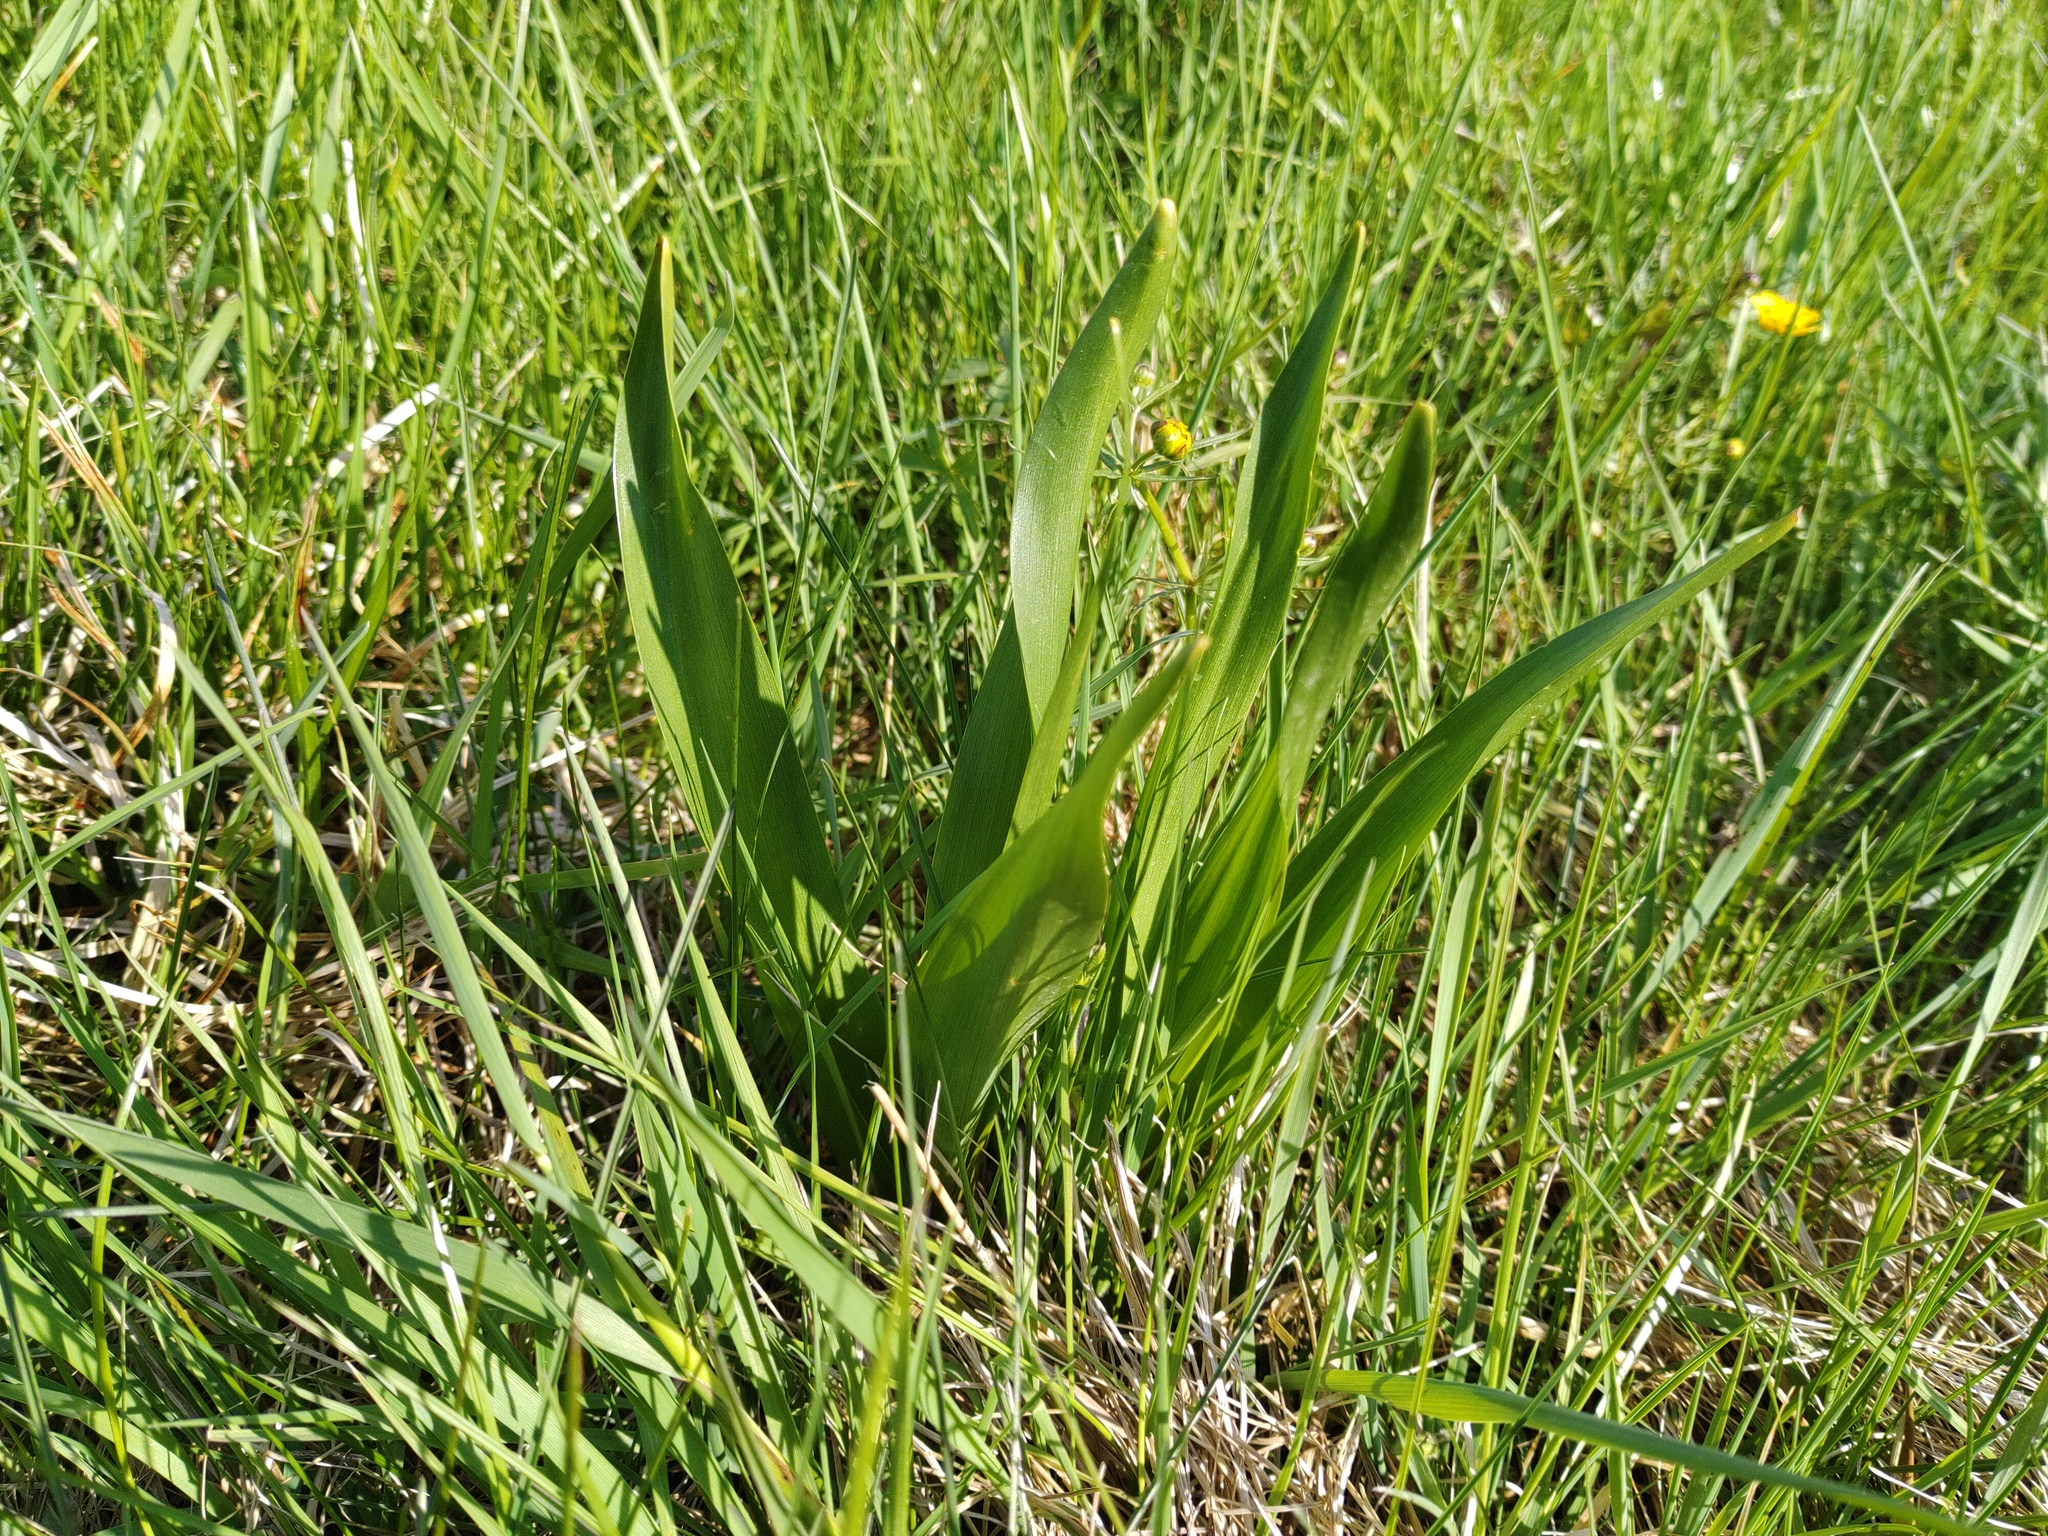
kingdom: Plantae
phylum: Tracheophyta
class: Liliopsida
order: Liliales
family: Colchicaceae
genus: Colchicum
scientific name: Colchicum autumnale
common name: Autumn crocus
